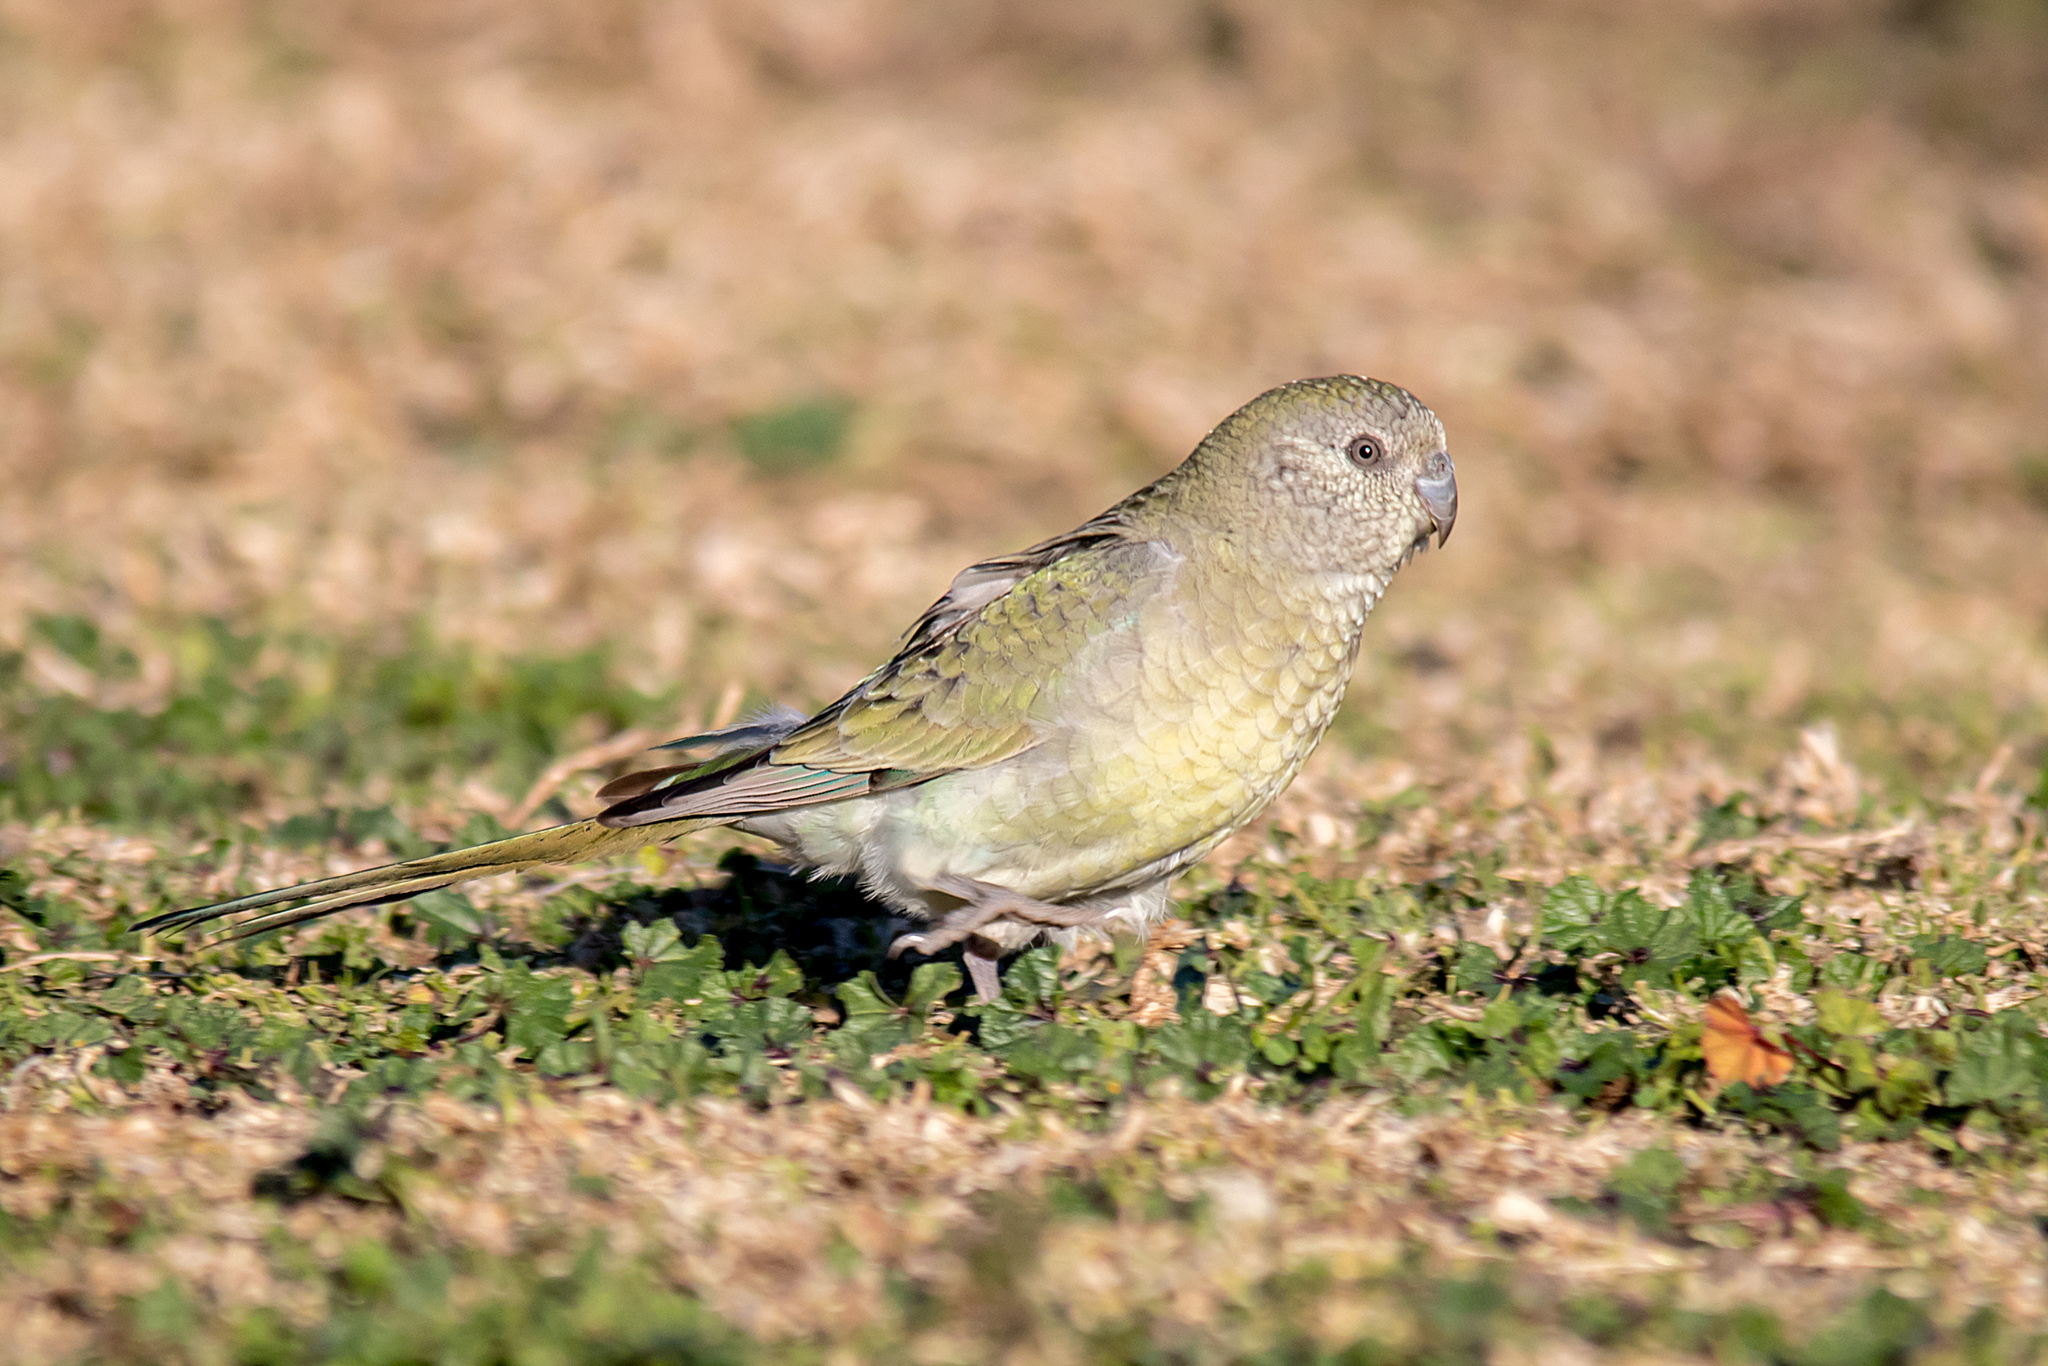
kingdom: Animalia
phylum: Chordata
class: Aves
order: Psittaciformes
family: Psittacidae
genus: Psephotus
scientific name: Psephotus haematonotus
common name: Red-rumped parrot
